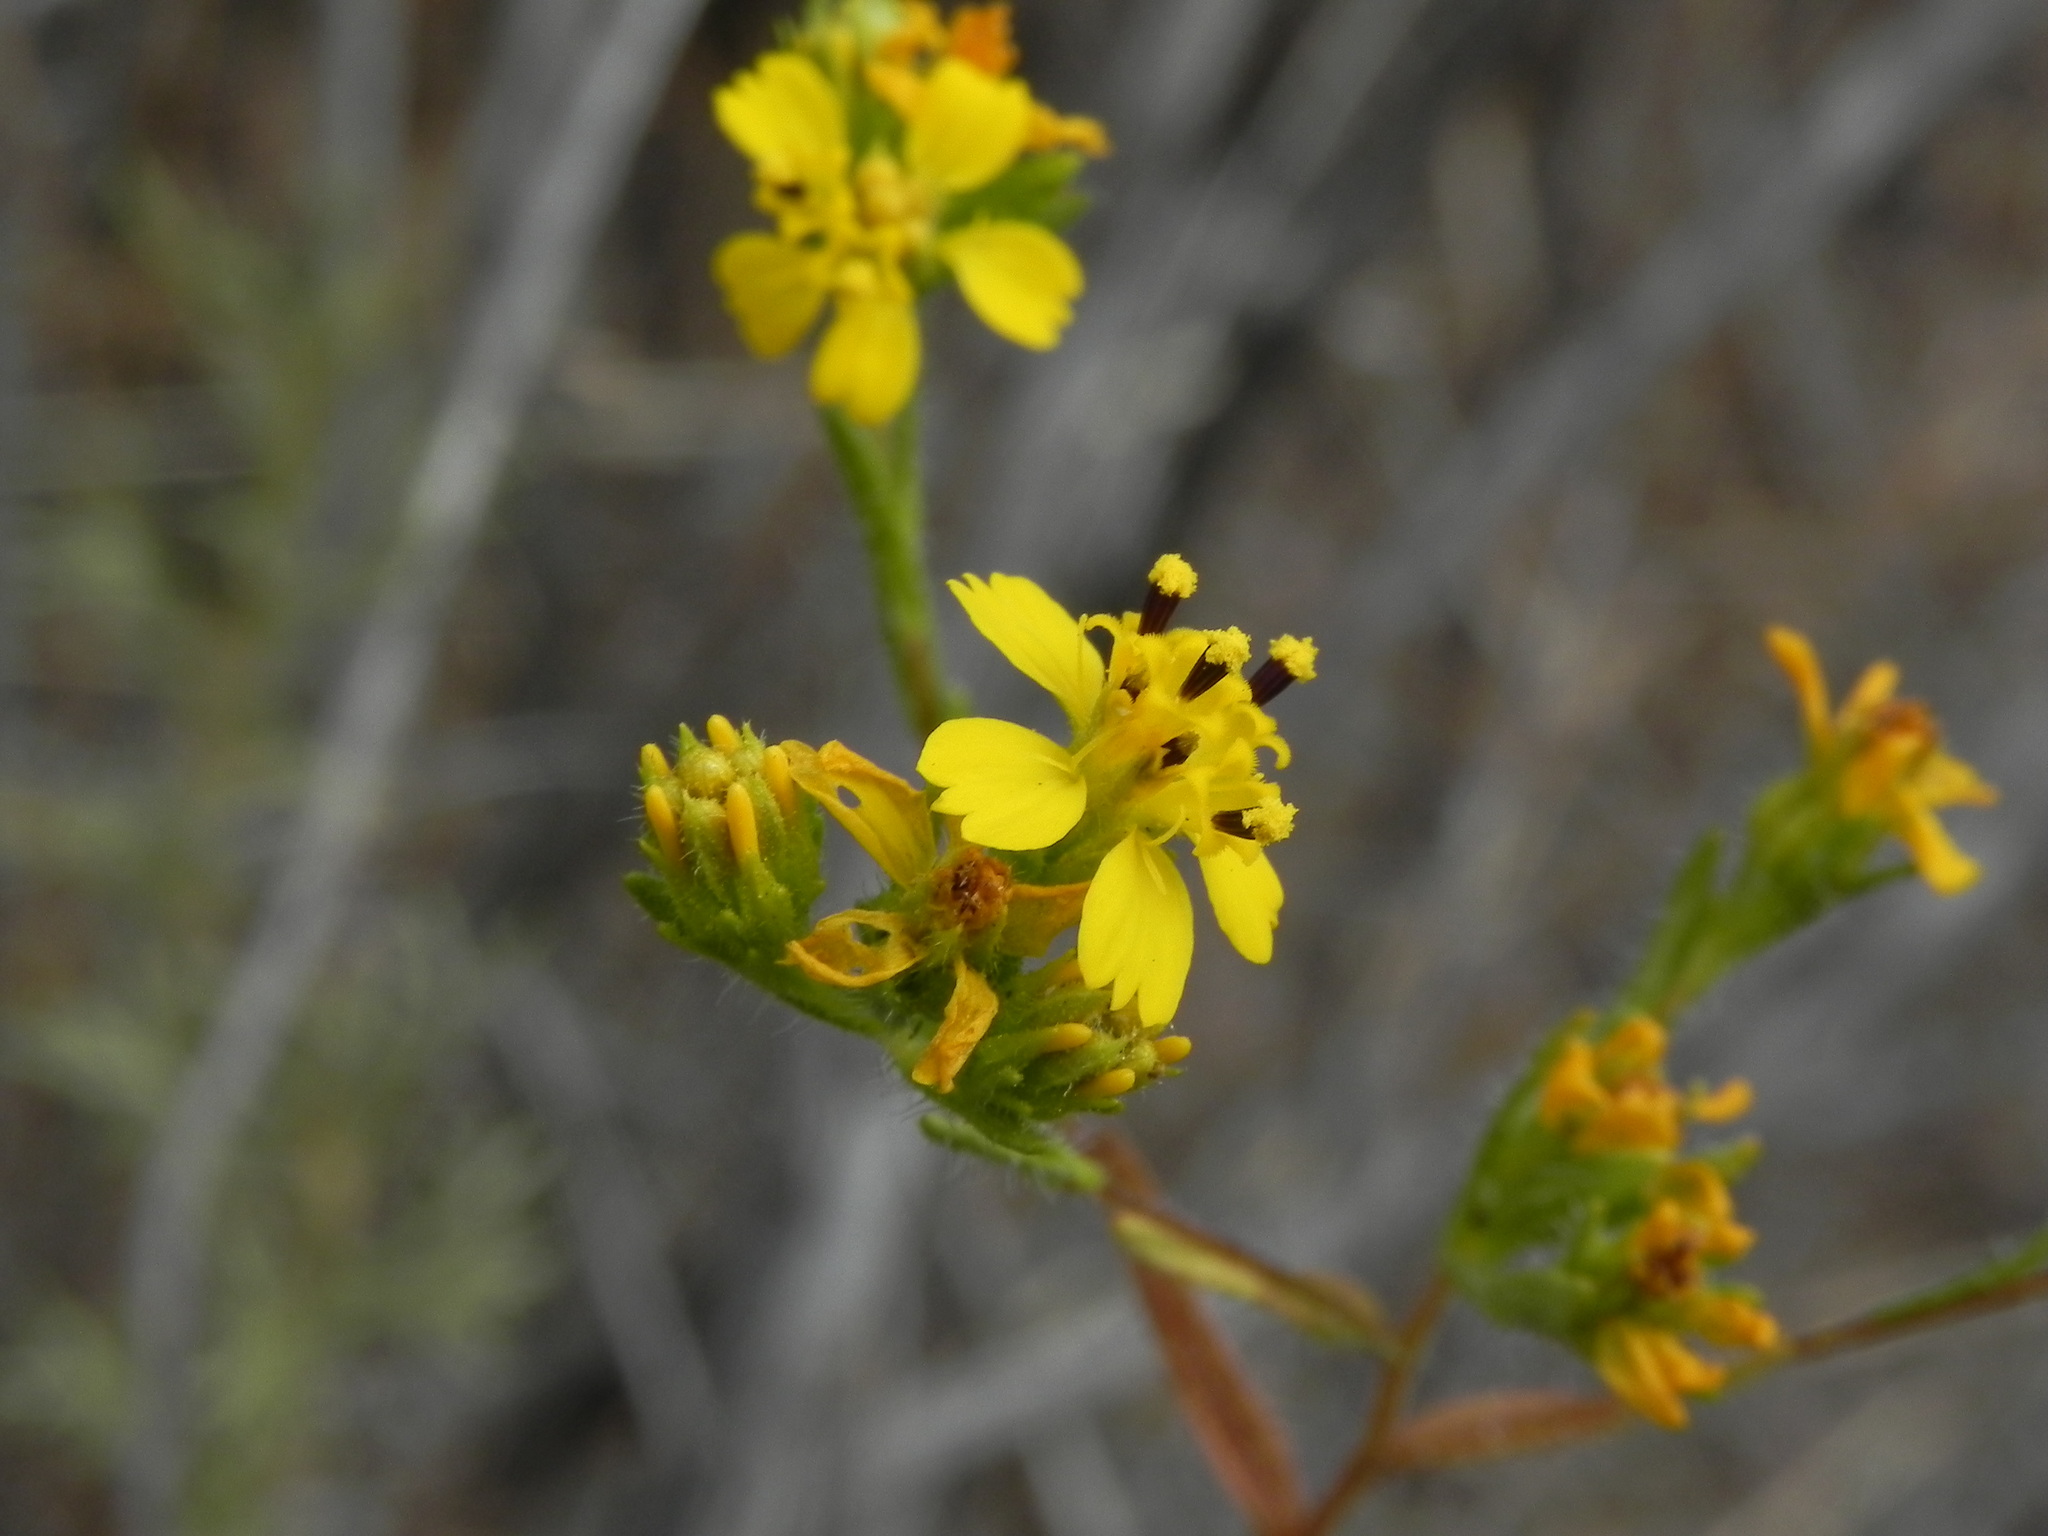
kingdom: Plantae
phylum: Tracheophyta
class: Magnoliopsida
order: Asterales
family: Asteraceae
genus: Deinandra
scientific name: Deinandra fasciculata
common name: Clustered tarweed
